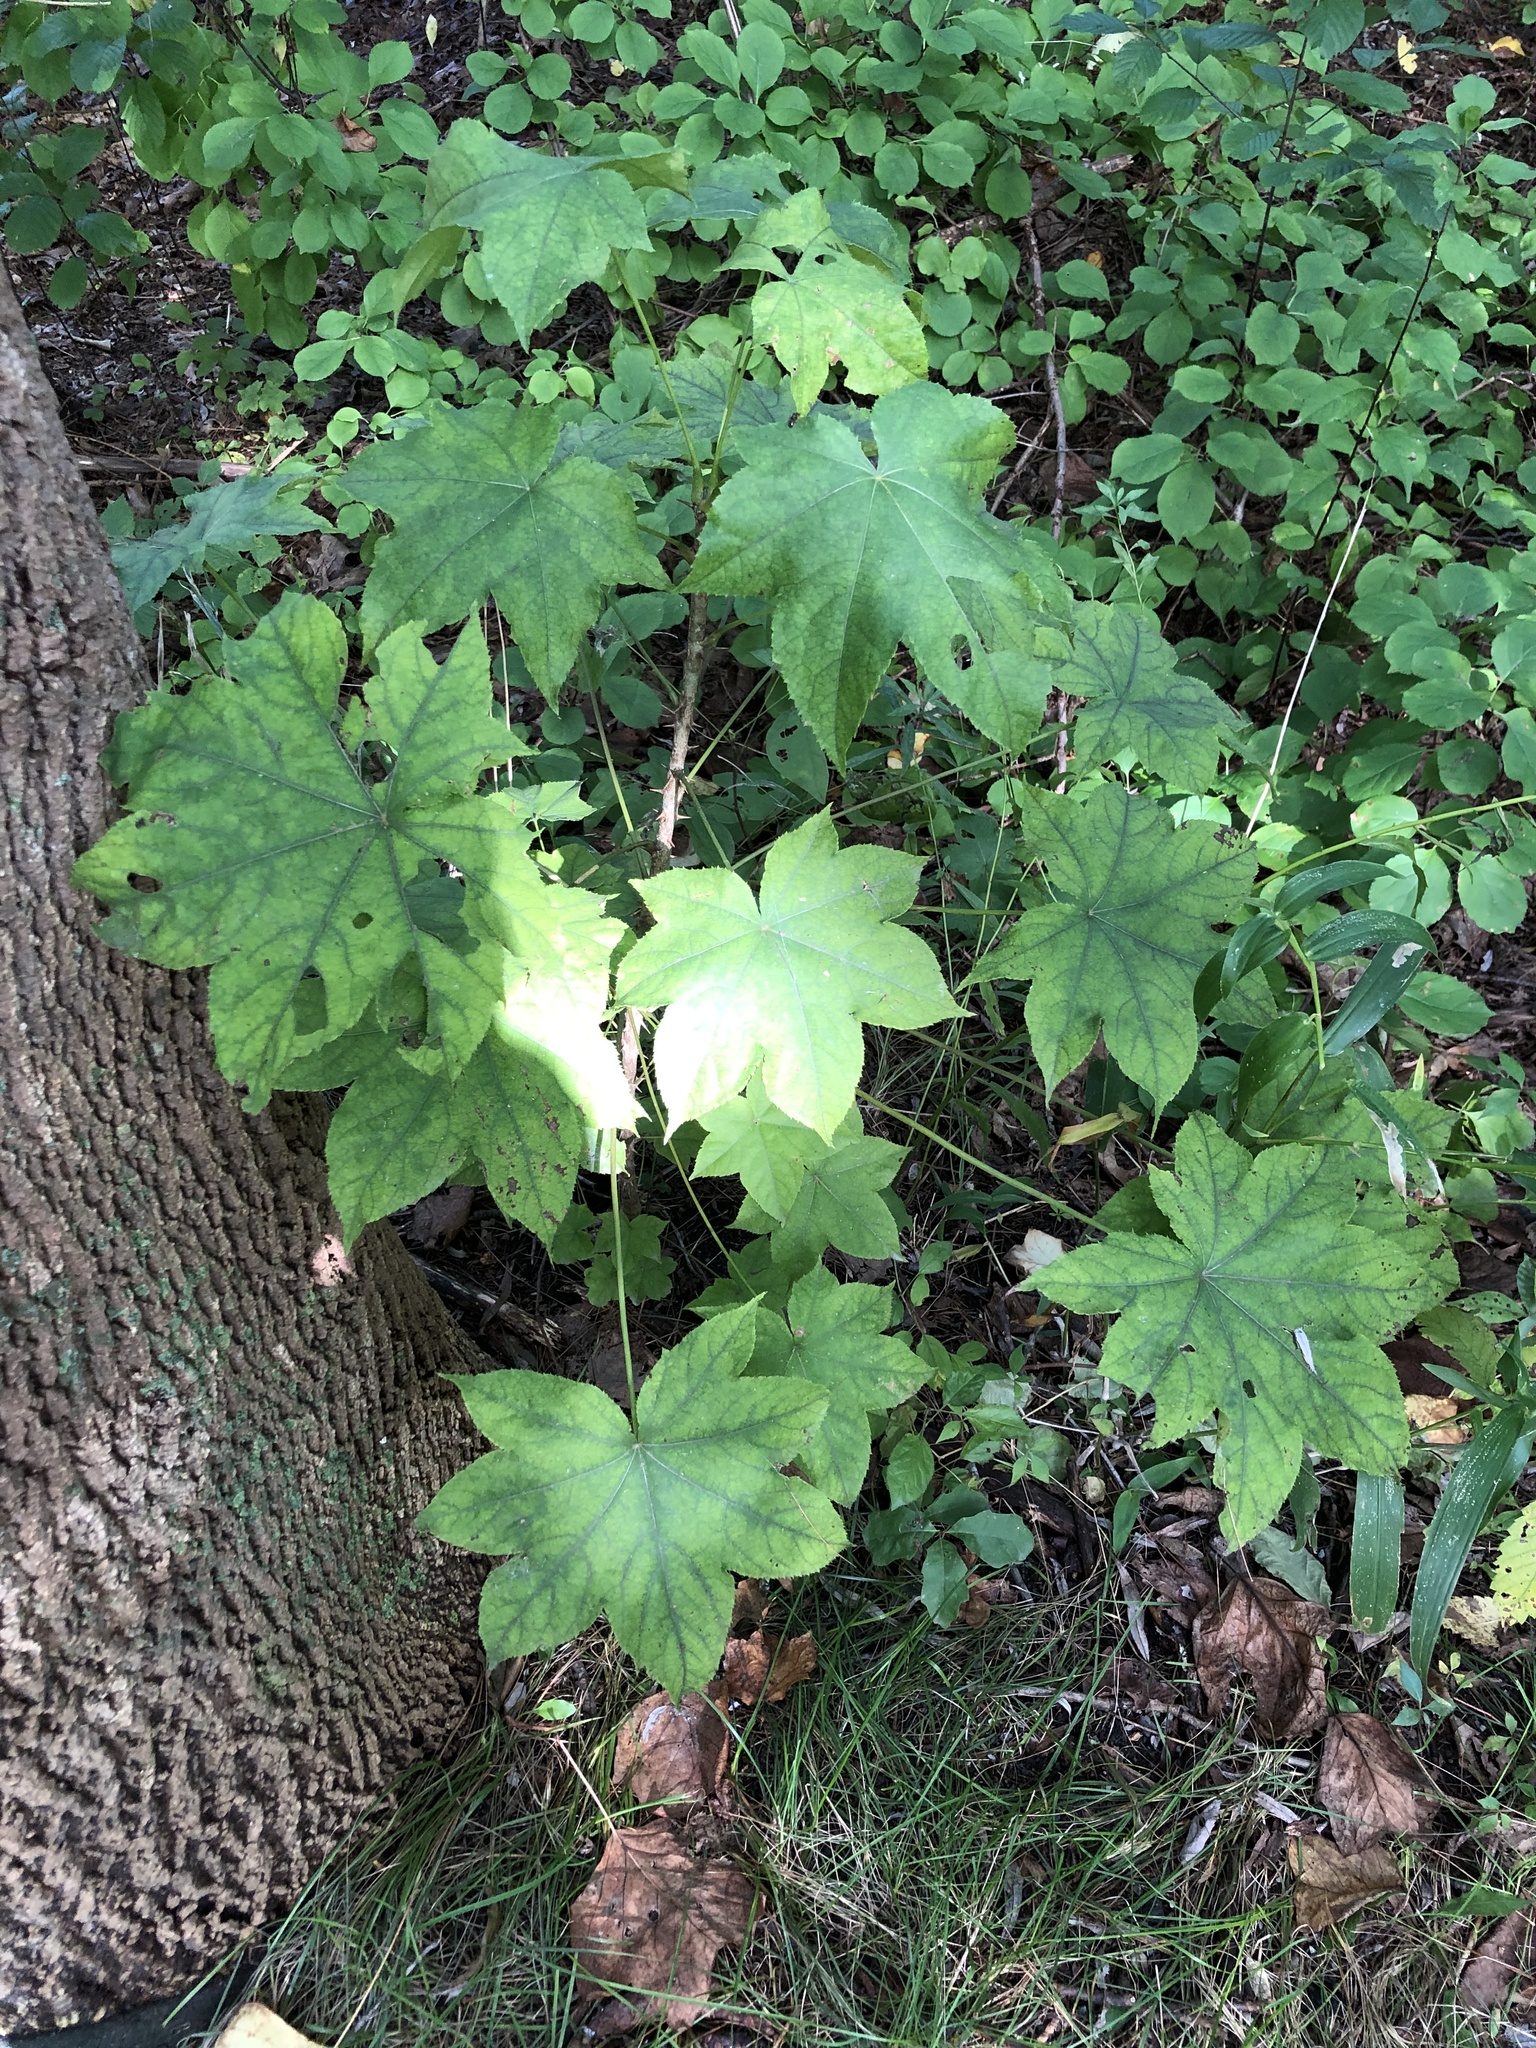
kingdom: Plantae
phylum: Tracheophyta
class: Magnoliopsida
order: Apiales
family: Araliaceae
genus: Kalopanax
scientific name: Kalopanax septemlobus
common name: Castor aralia
